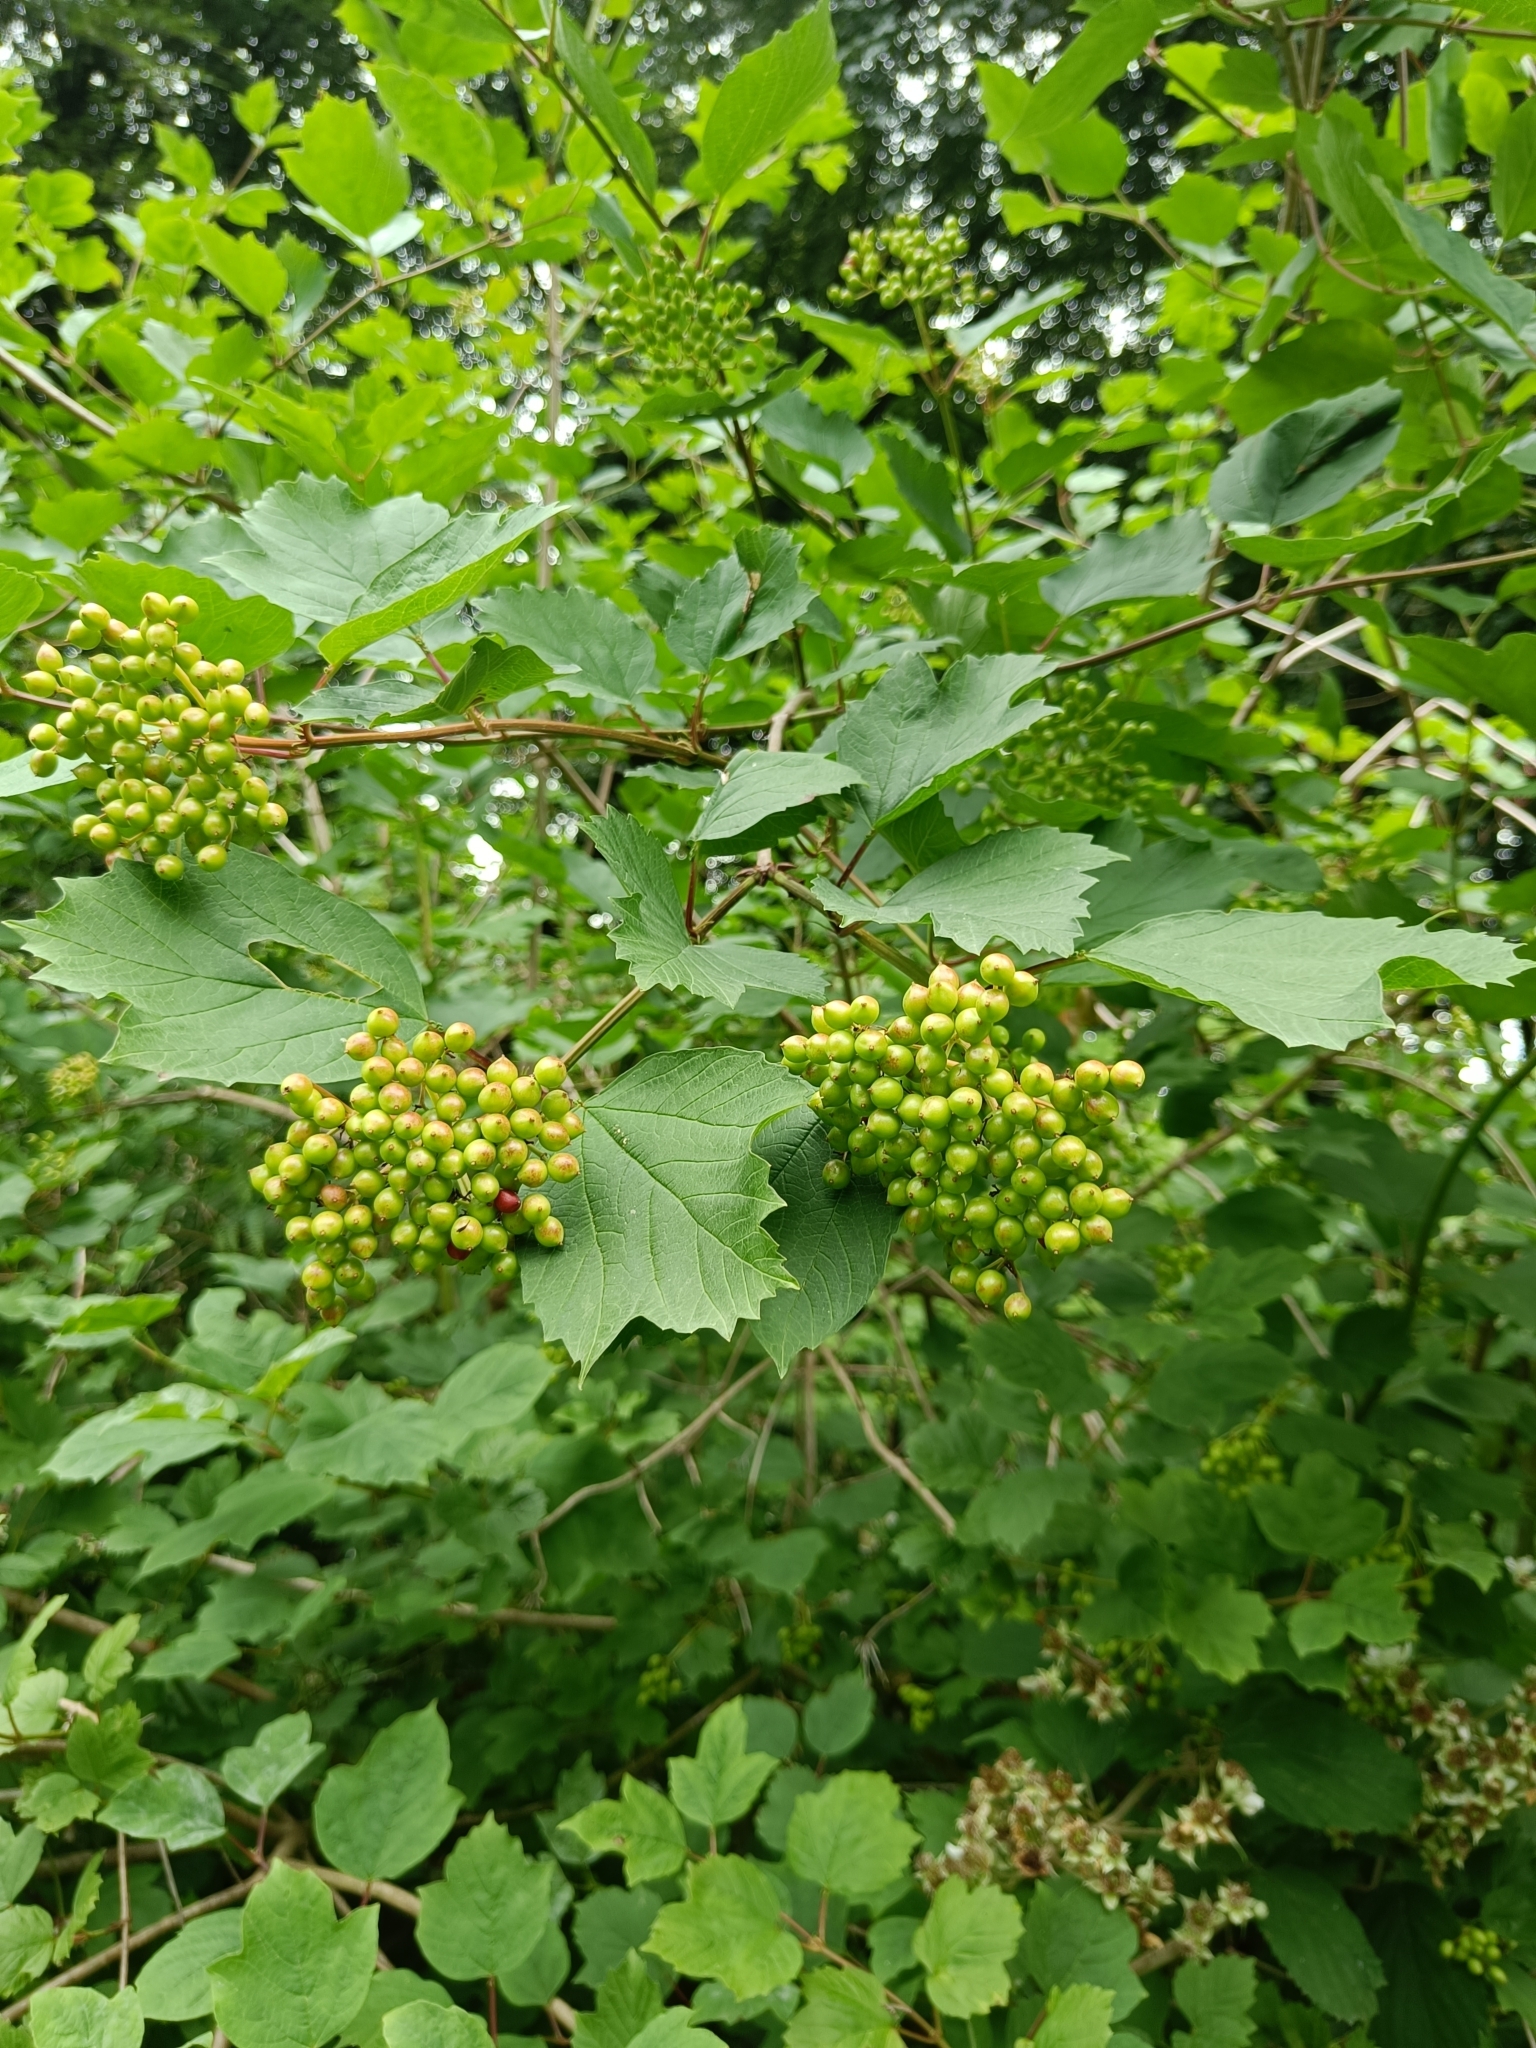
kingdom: Plantae
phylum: Tracheophyta
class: Magnoliopsida
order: Dipsacales
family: Viburnaceae
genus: Viburnum
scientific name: Viburnum opulus
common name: Guelder-rose
